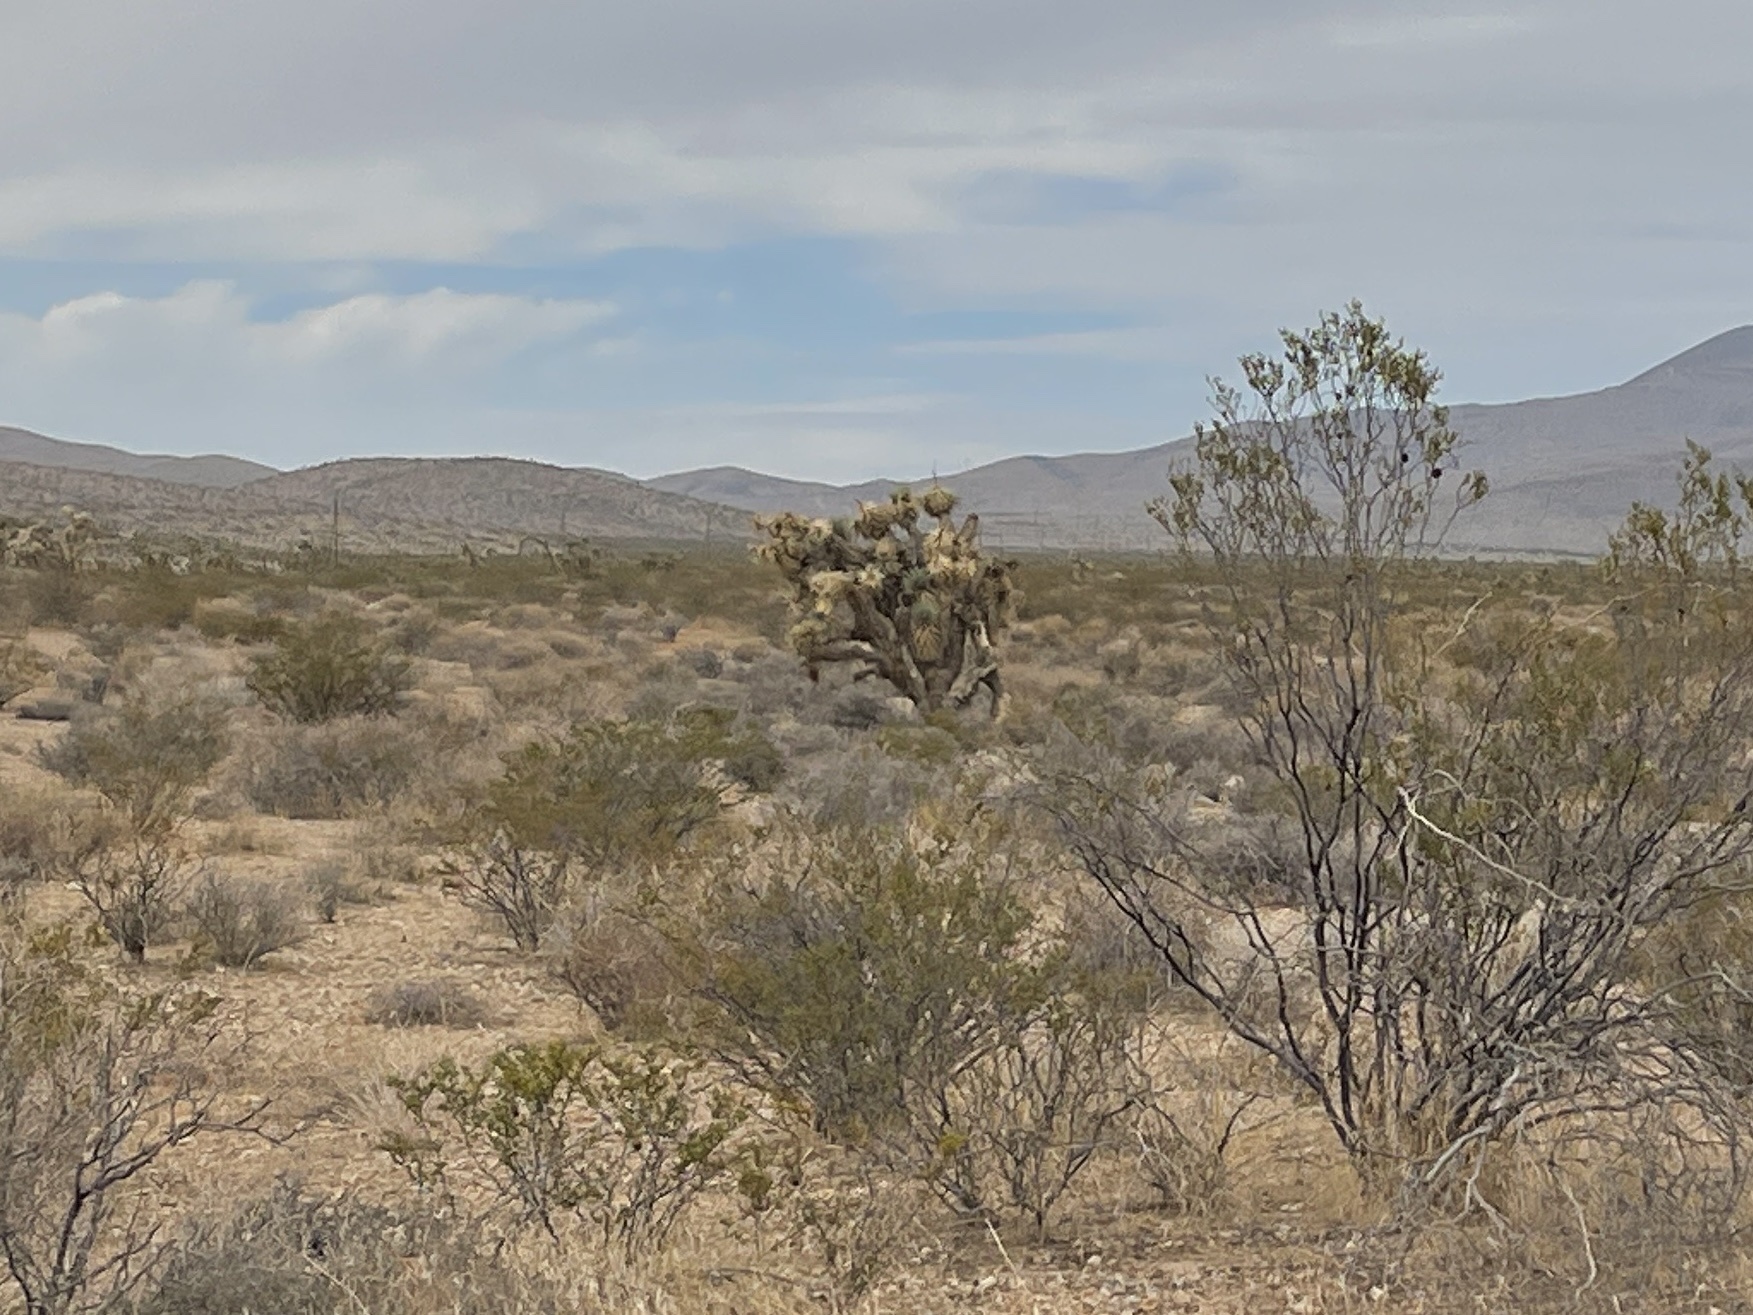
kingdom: Plantae
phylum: Tracheophyta
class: Liliopsida
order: Asparagales
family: Asparagaceae
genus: Yucca
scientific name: Yucca brevifolia
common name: Joshua tree
